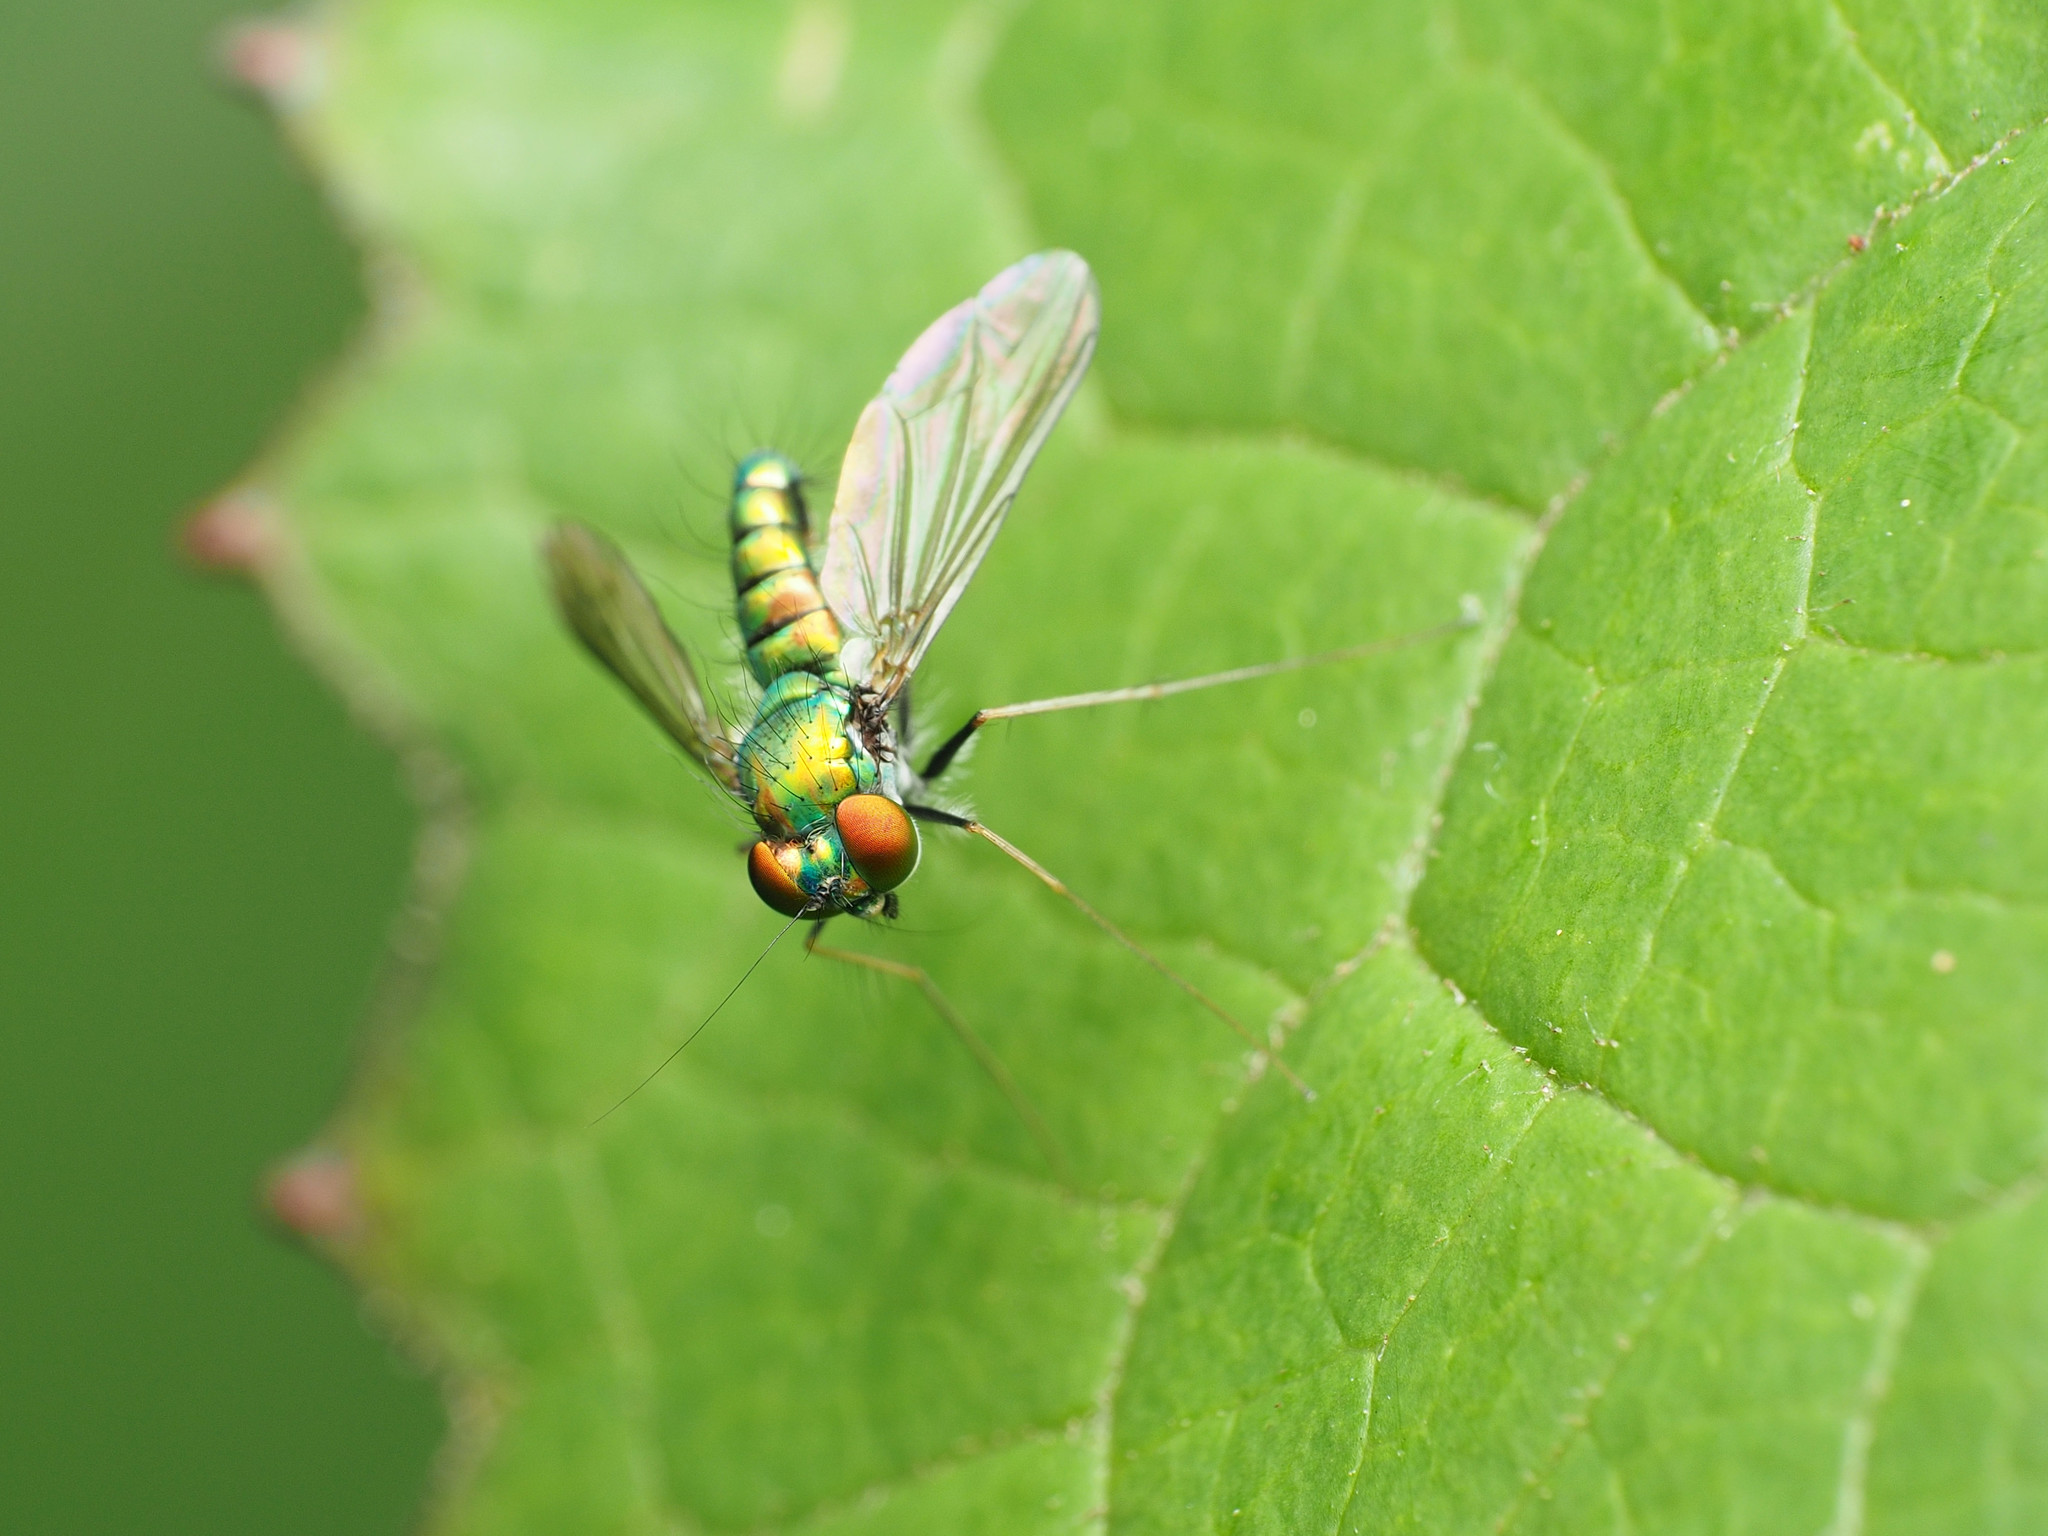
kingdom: Animalia
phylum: Arthropoda
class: Insecta
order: Diptera
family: Dolichopodidae
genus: Condylostylus
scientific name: Condylostylus comatus
